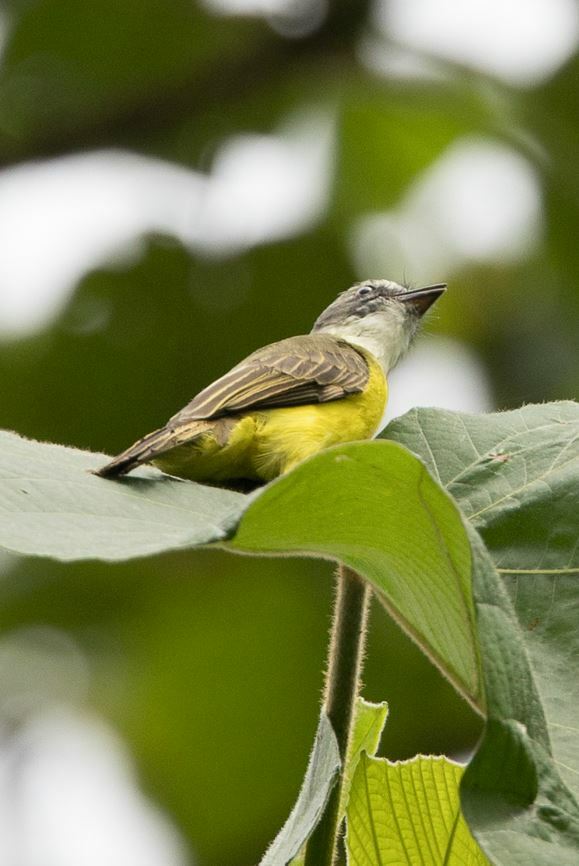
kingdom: Animalia
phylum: Chordata
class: Aves
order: Passeriformes
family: Tyrannidae
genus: Myiozetetes
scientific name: Myiozetetes granadensis
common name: Gray-capped flycatcher
